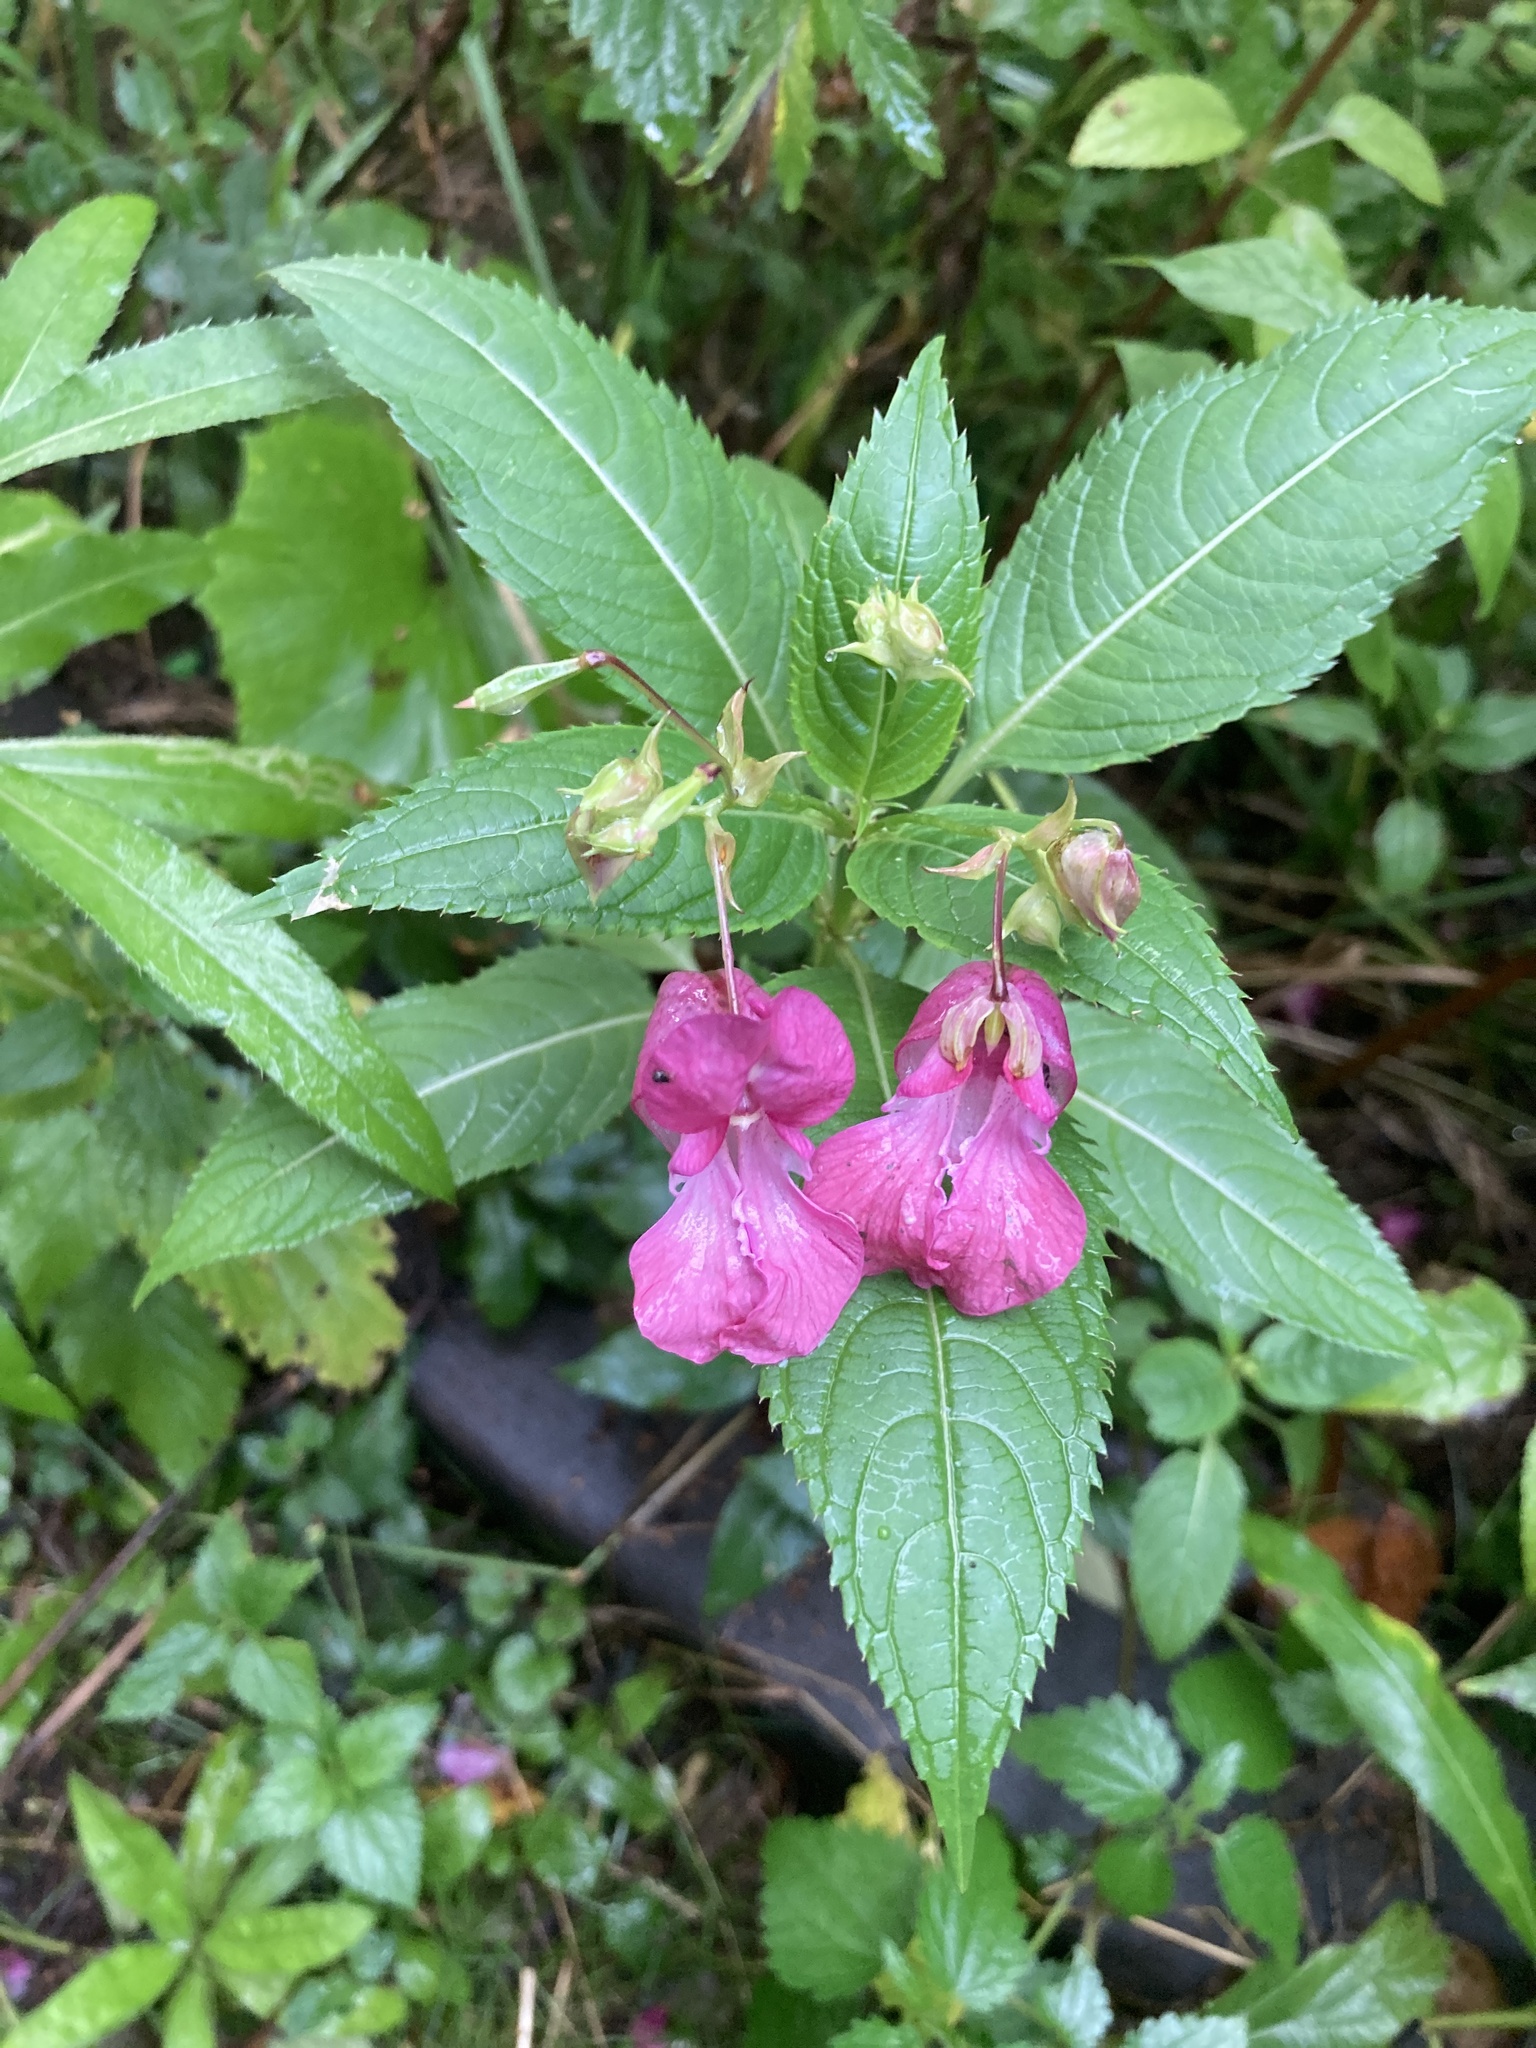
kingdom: Plantae
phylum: Tracheophyta
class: Magnoliopsida
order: Ericales
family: Balsaminaceae
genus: Impatiens
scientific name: Impatiens glandulifera
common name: Himalayan balsam
